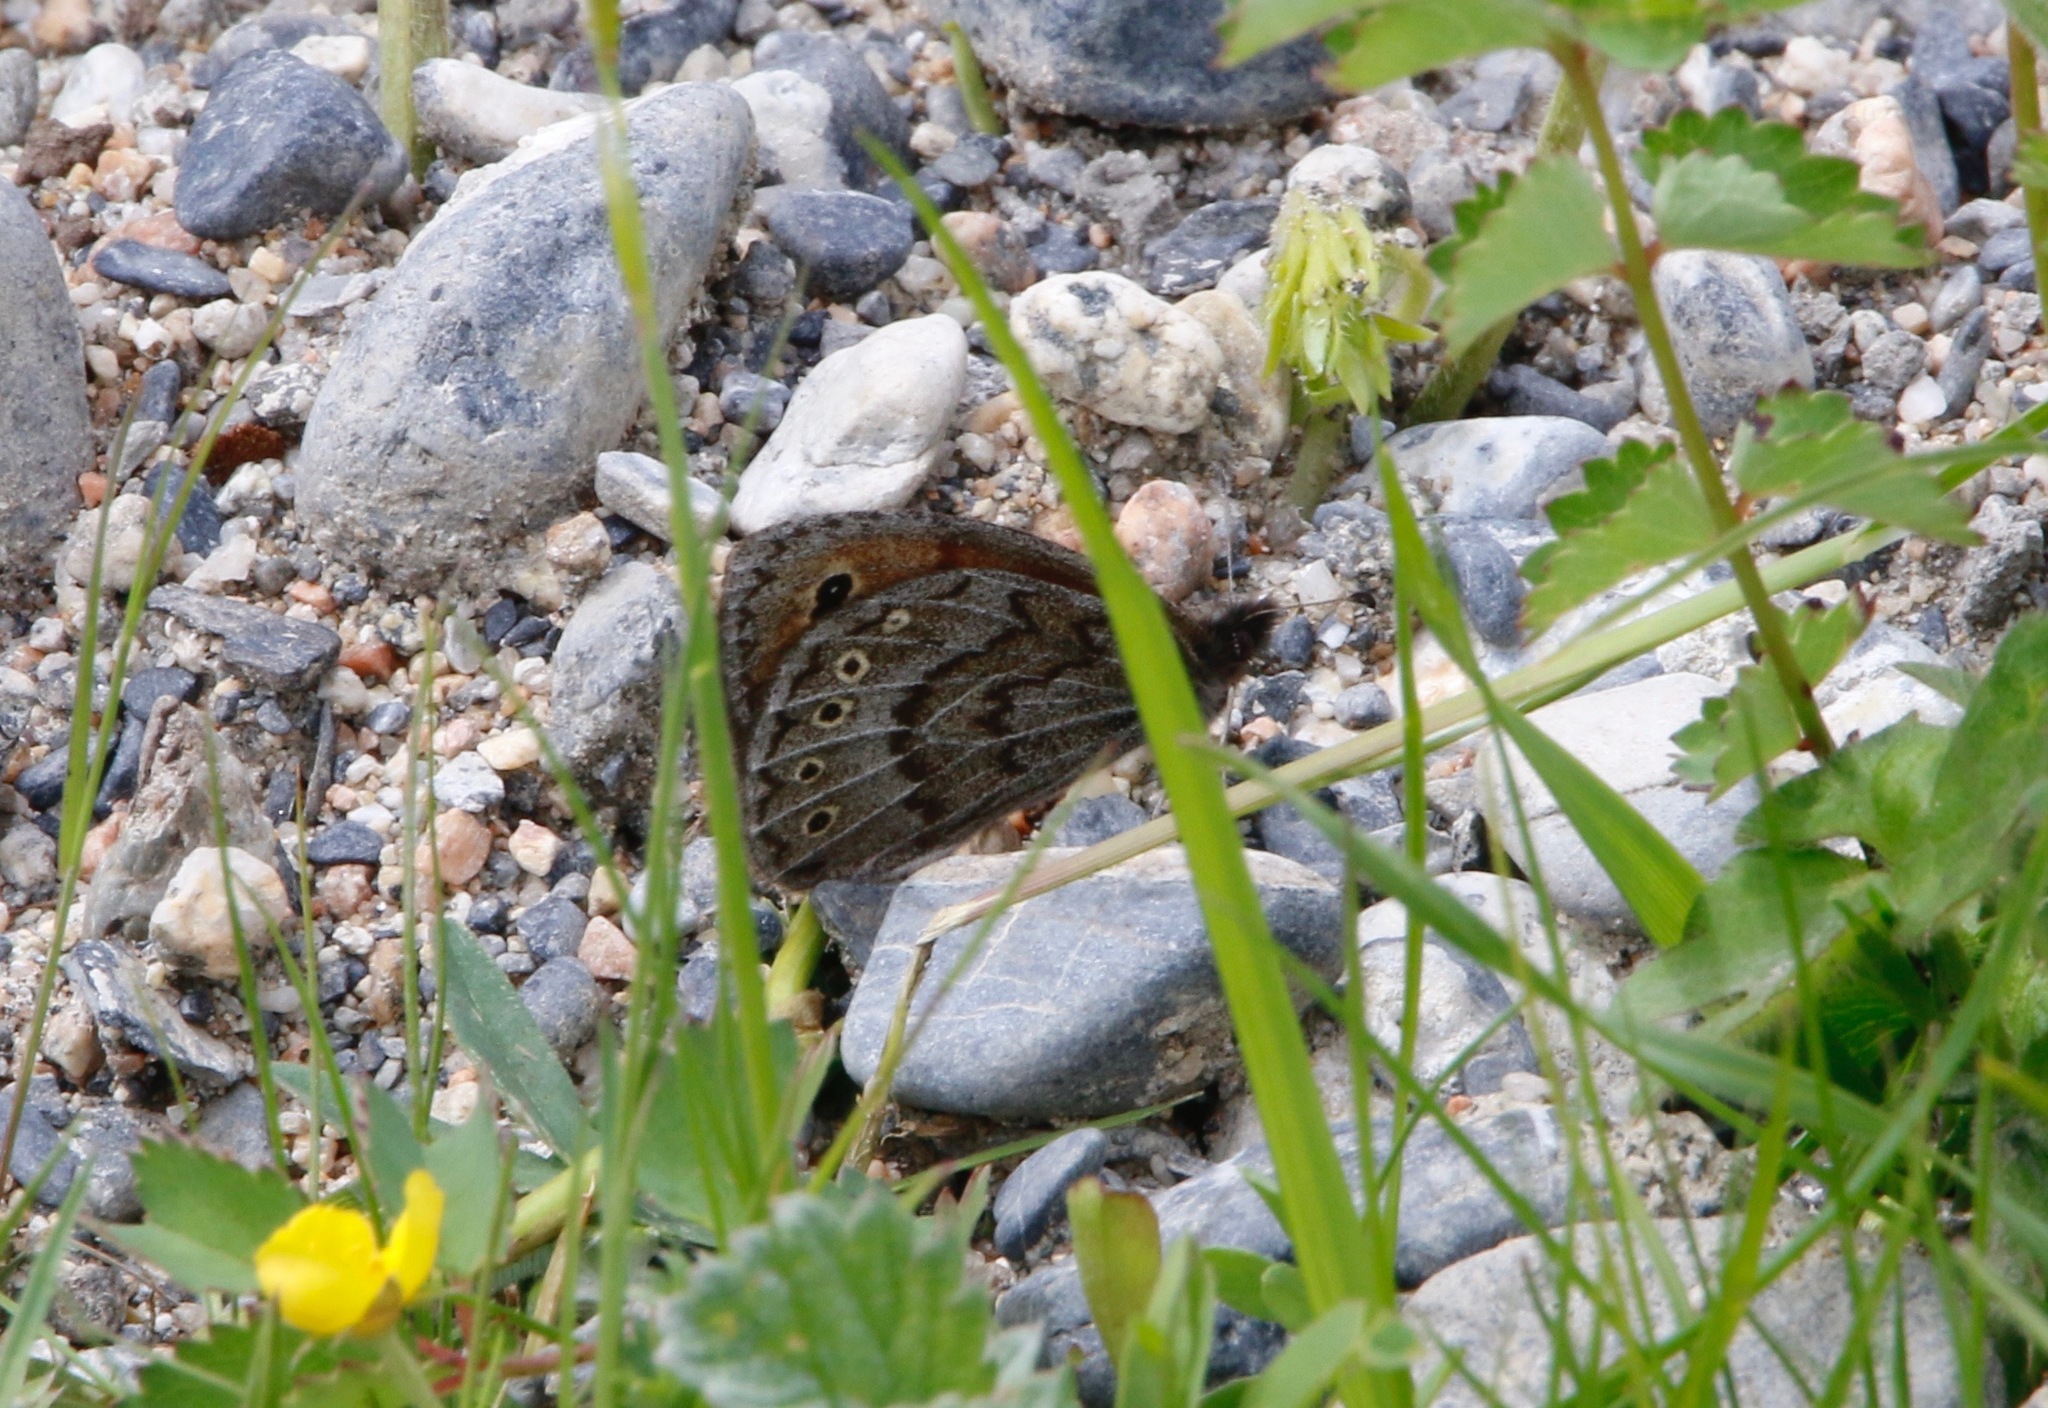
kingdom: Animalia
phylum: Arthropoda
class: Insecta
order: Lepidoptera
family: Nymphalidae
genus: Erebia
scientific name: Erebia Boeberia parmenio
